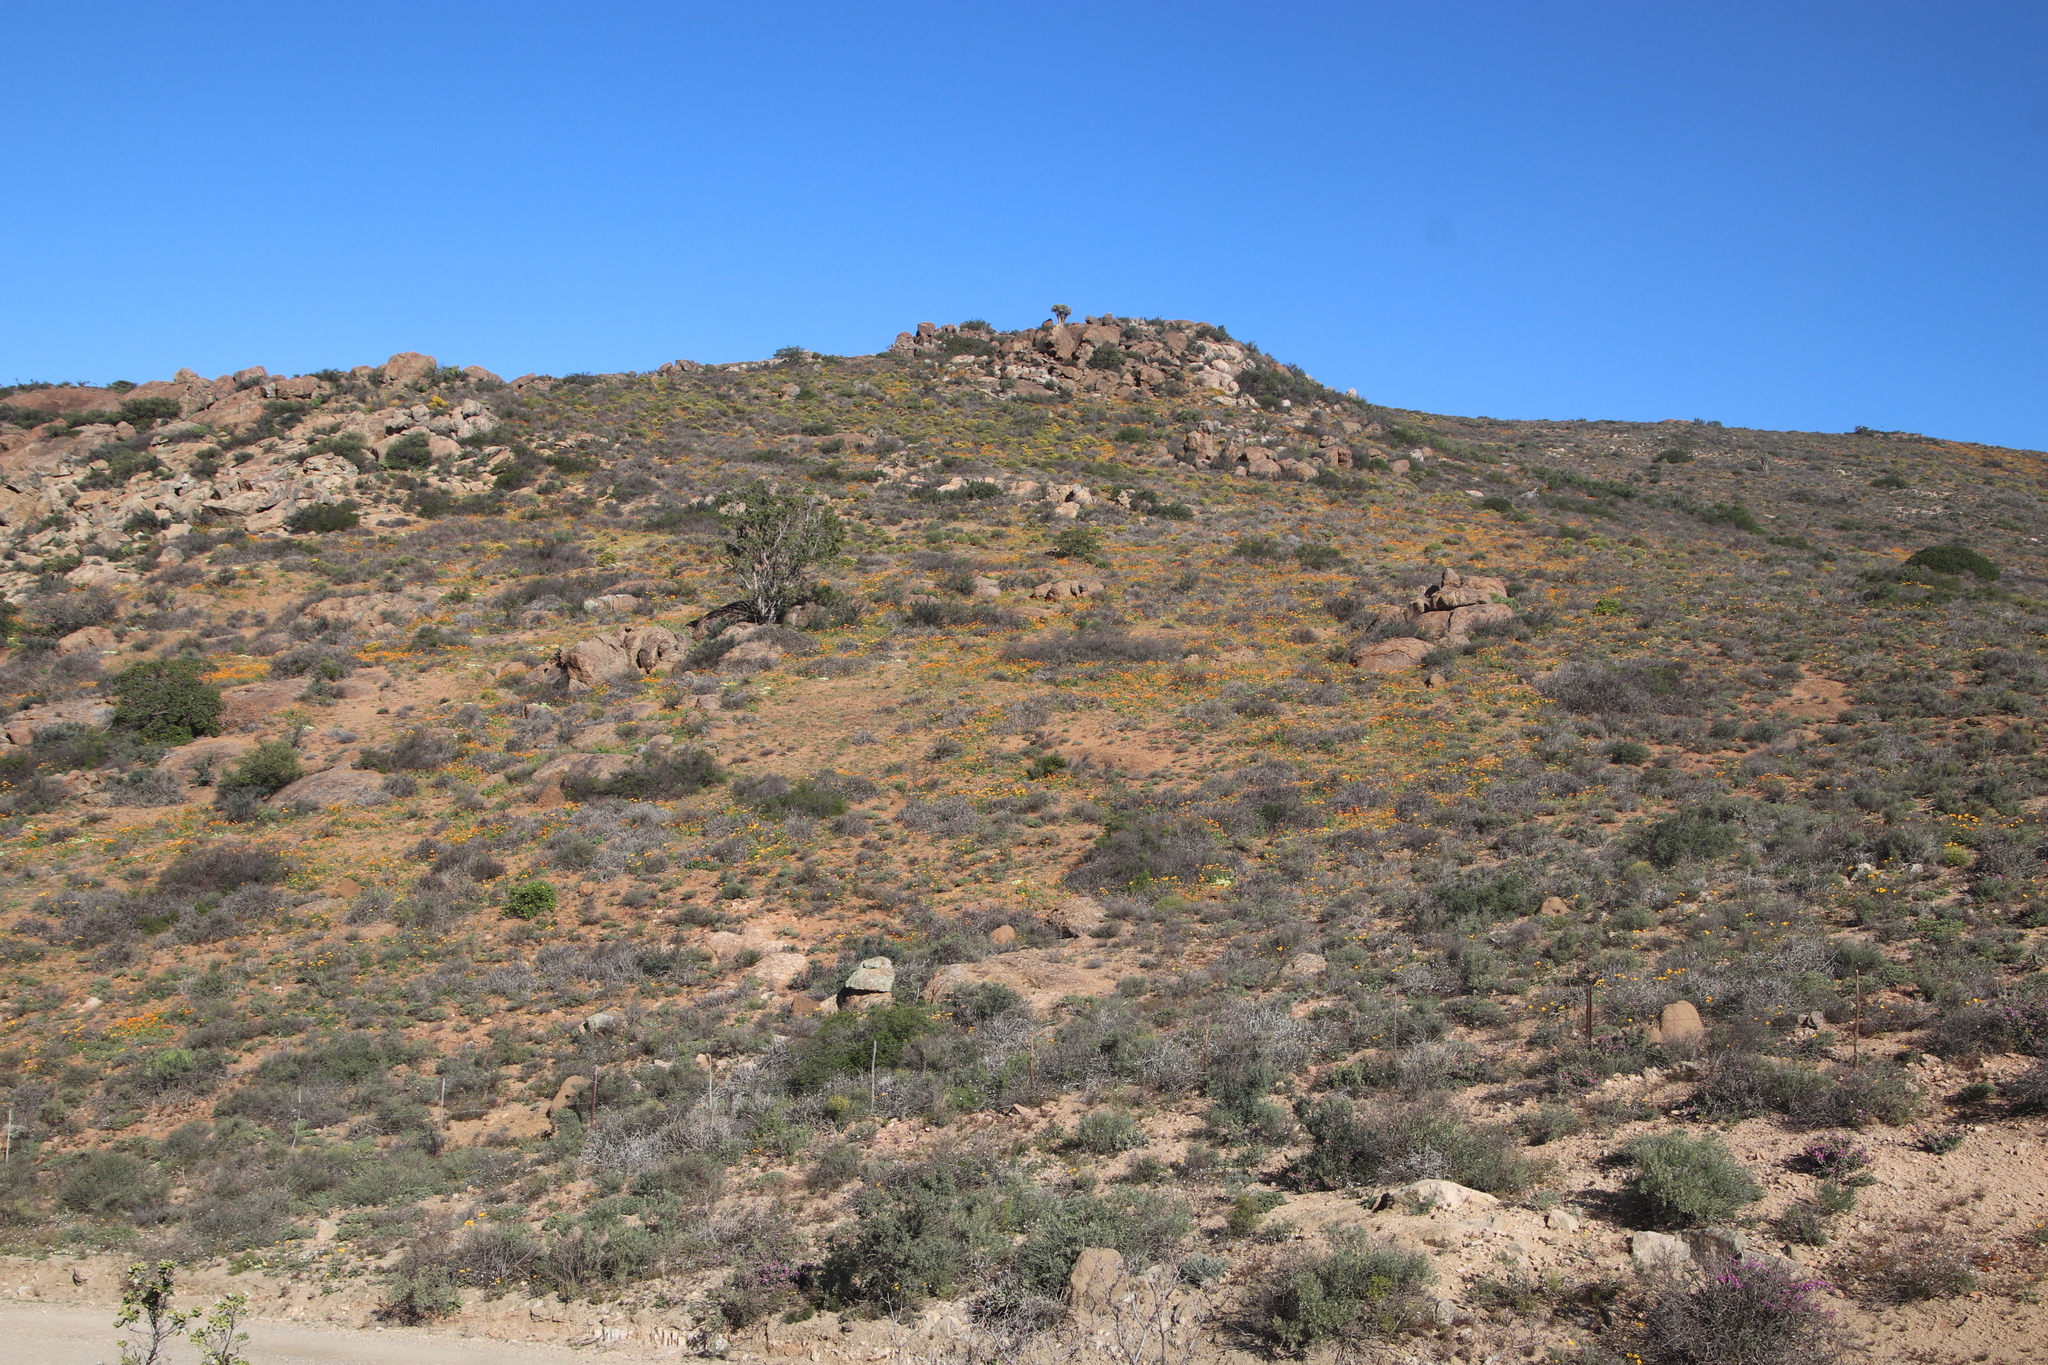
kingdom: Plantae
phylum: Tracheophyta
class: Magnoliopsida
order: Rosales
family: Moraceae
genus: Ficus
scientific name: Ficus cordata
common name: Namaqua rock fig
